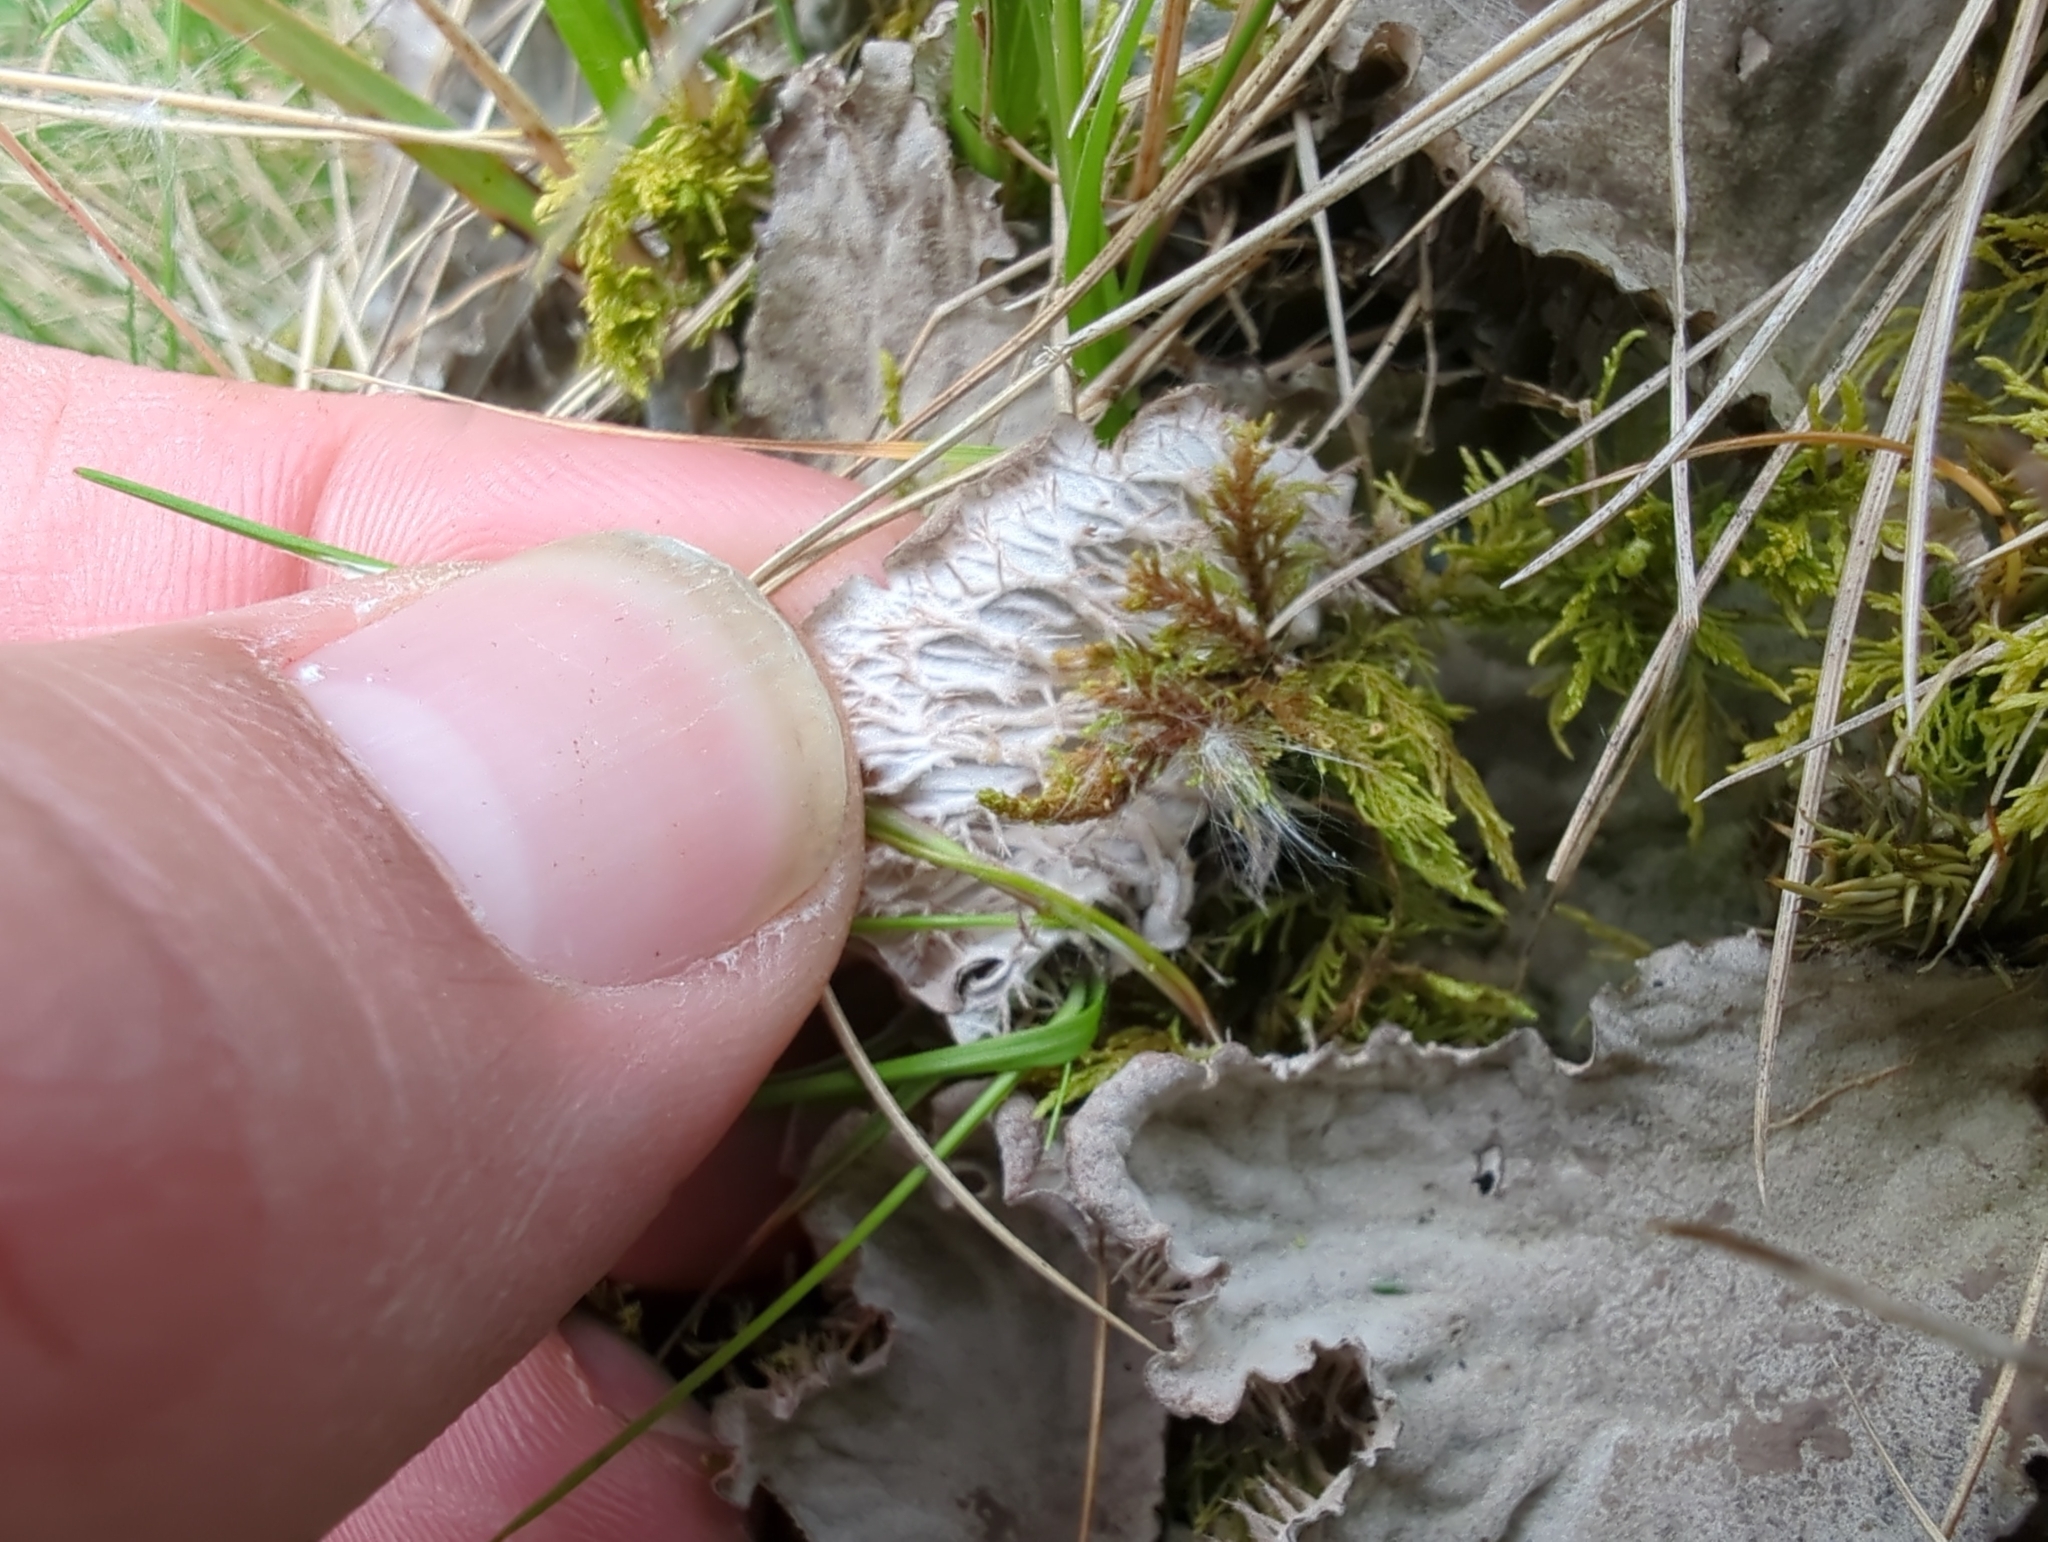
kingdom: Fungi
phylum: Ascomycota
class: Lecanoromycetes
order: Peltigerales
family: Peltigeraceae
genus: Peltigera
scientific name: Peltigera membranacea
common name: Membranous pelt lichen
